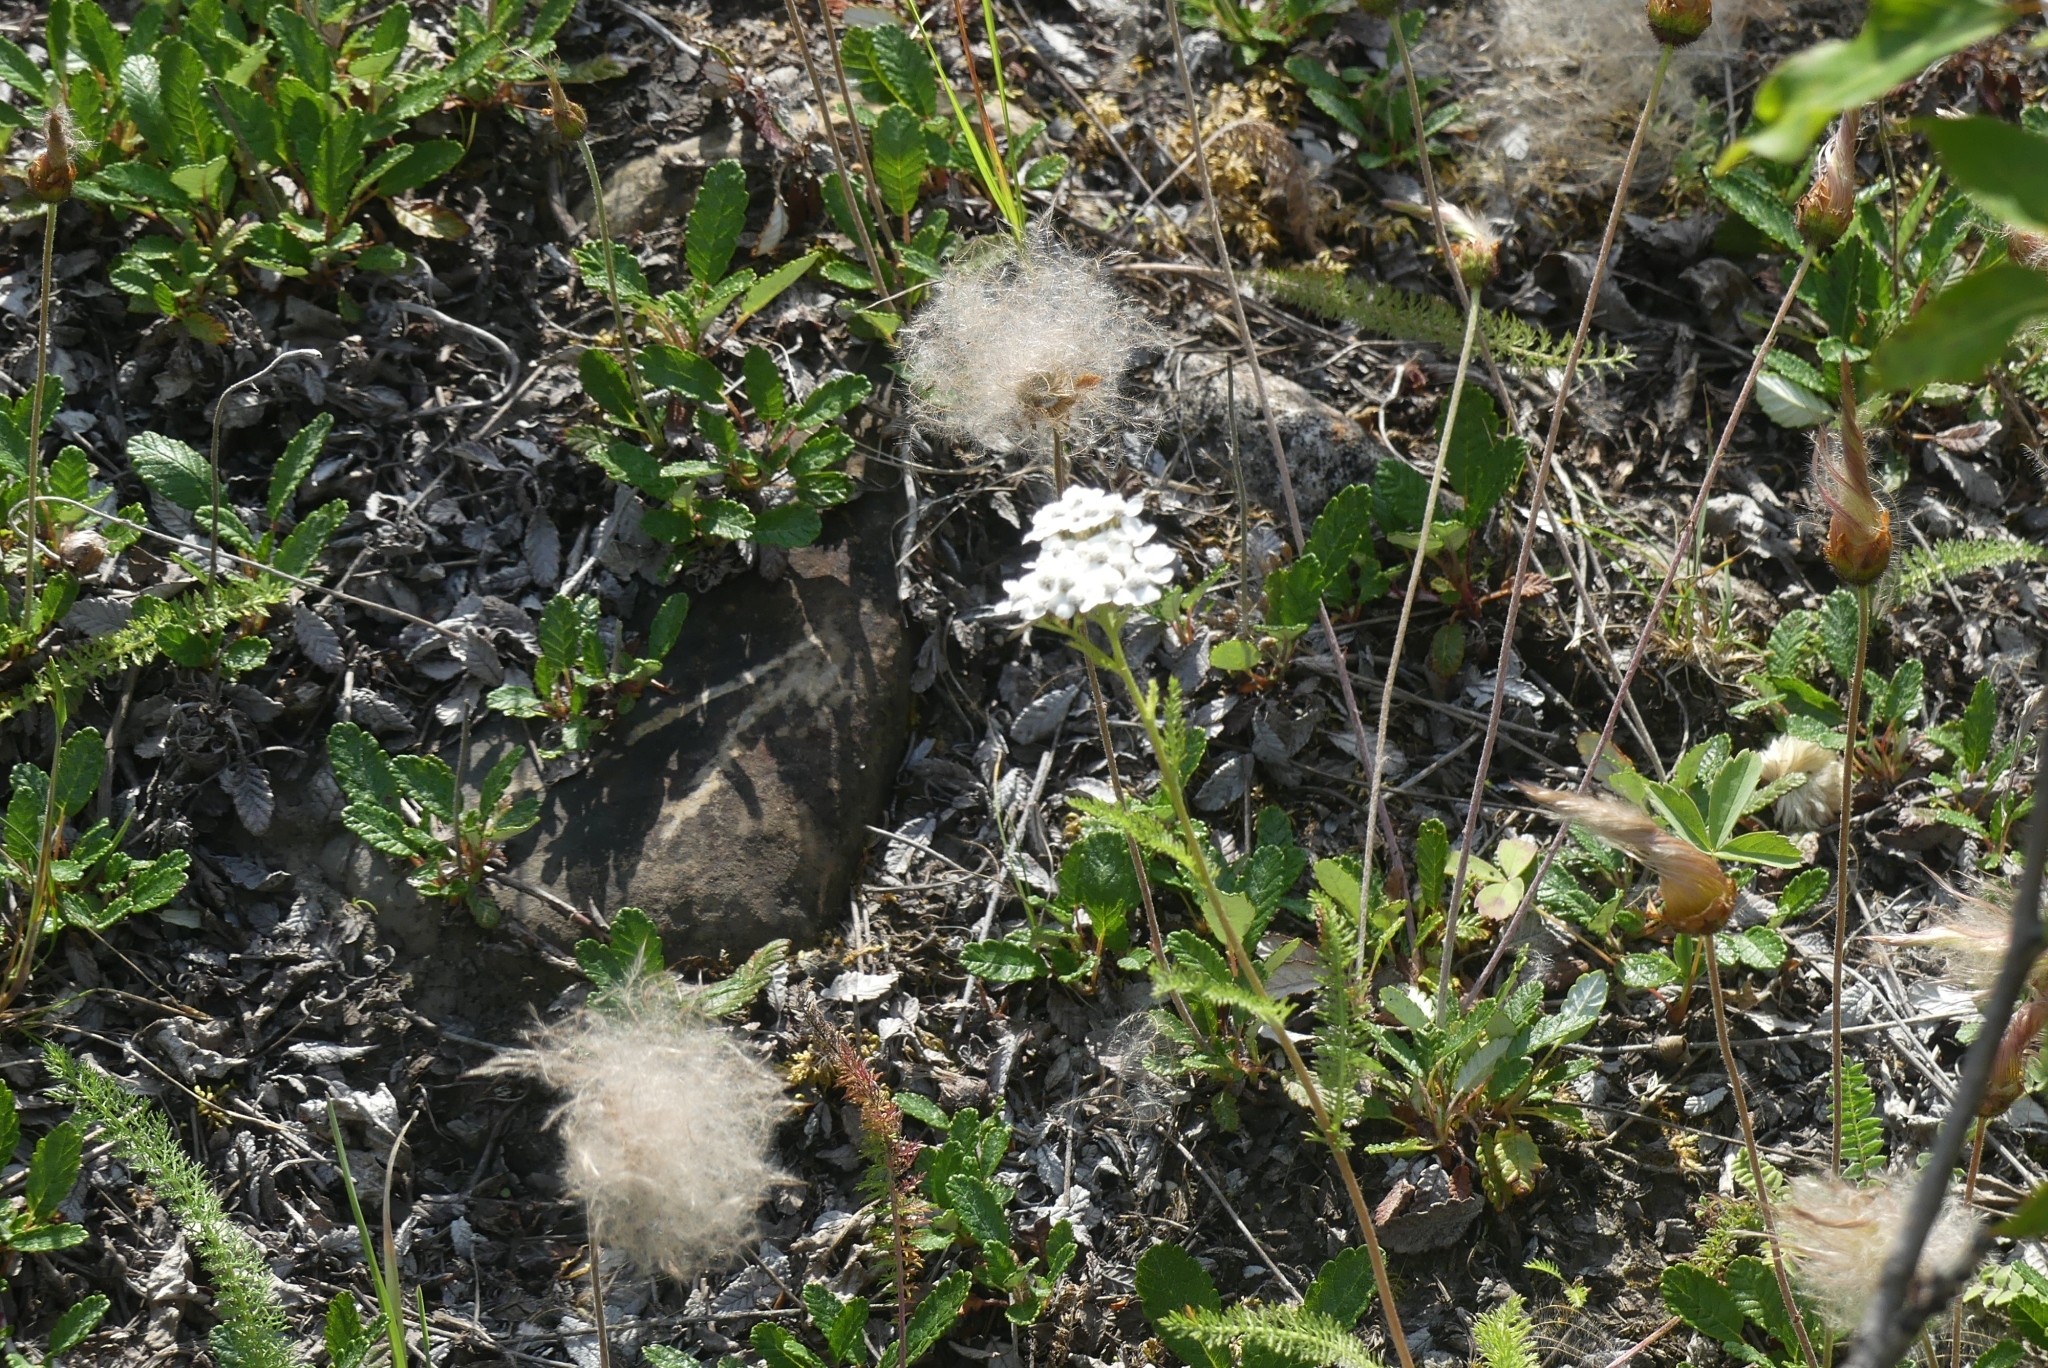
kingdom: Plantae
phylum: Tracheophyta
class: Magnoliopsida
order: Asterales
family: Asteraceae
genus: Achillea
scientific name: Achillea millefolium
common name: Yarrow
